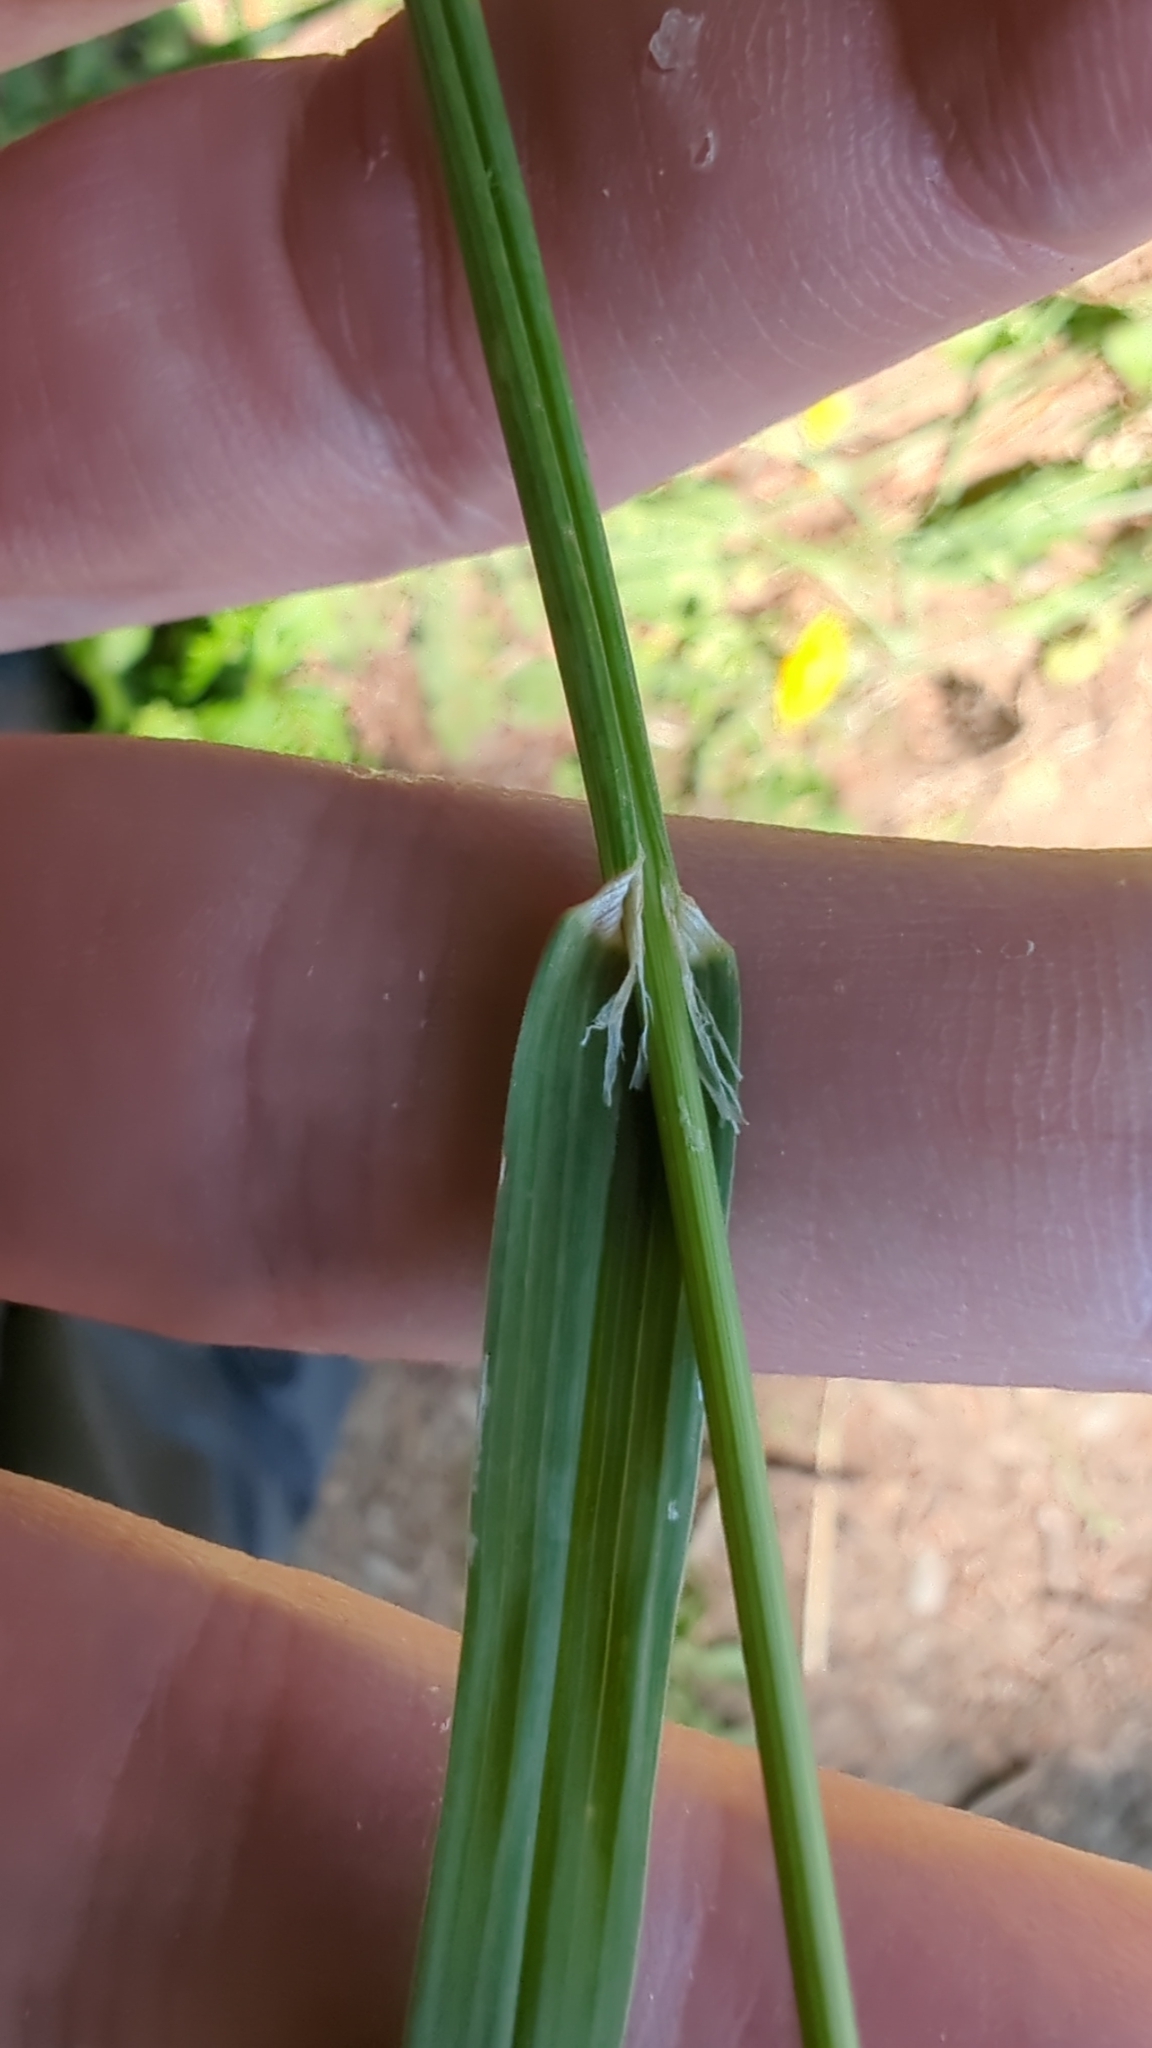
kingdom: Plantae
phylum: Tracheophyta
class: Liliopsida
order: Poales
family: Poaceae
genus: Dactylis
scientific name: Dactylis glomerata
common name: Orchardgrass
